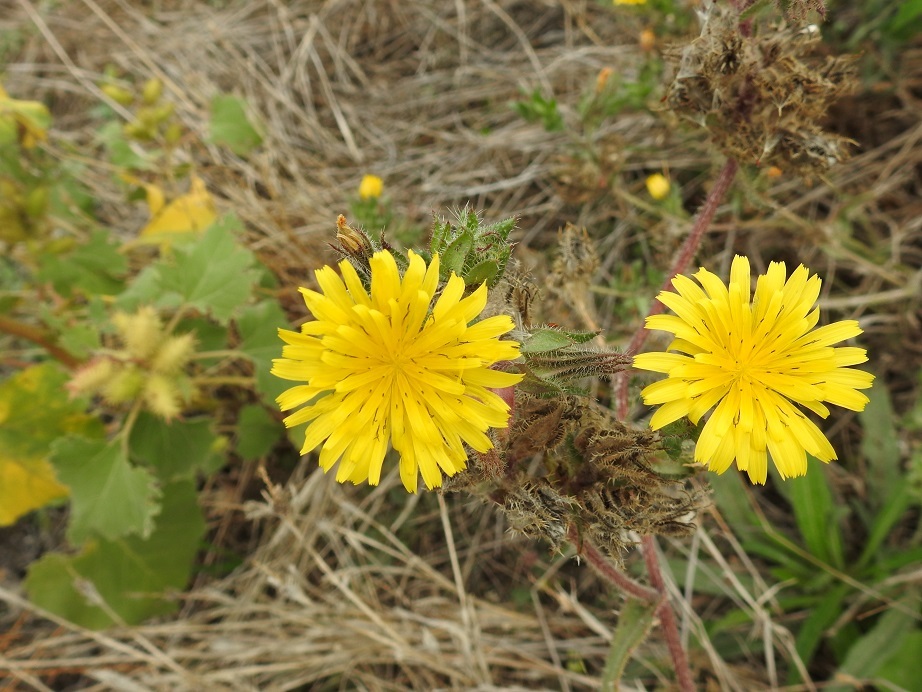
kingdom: Plantae
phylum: Tracheophyta
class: Magnoliopsida
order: Asterales
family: Asteraceae
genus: Helminthotheca
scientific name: Helminthotheca echioides
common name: Ox-tongue
